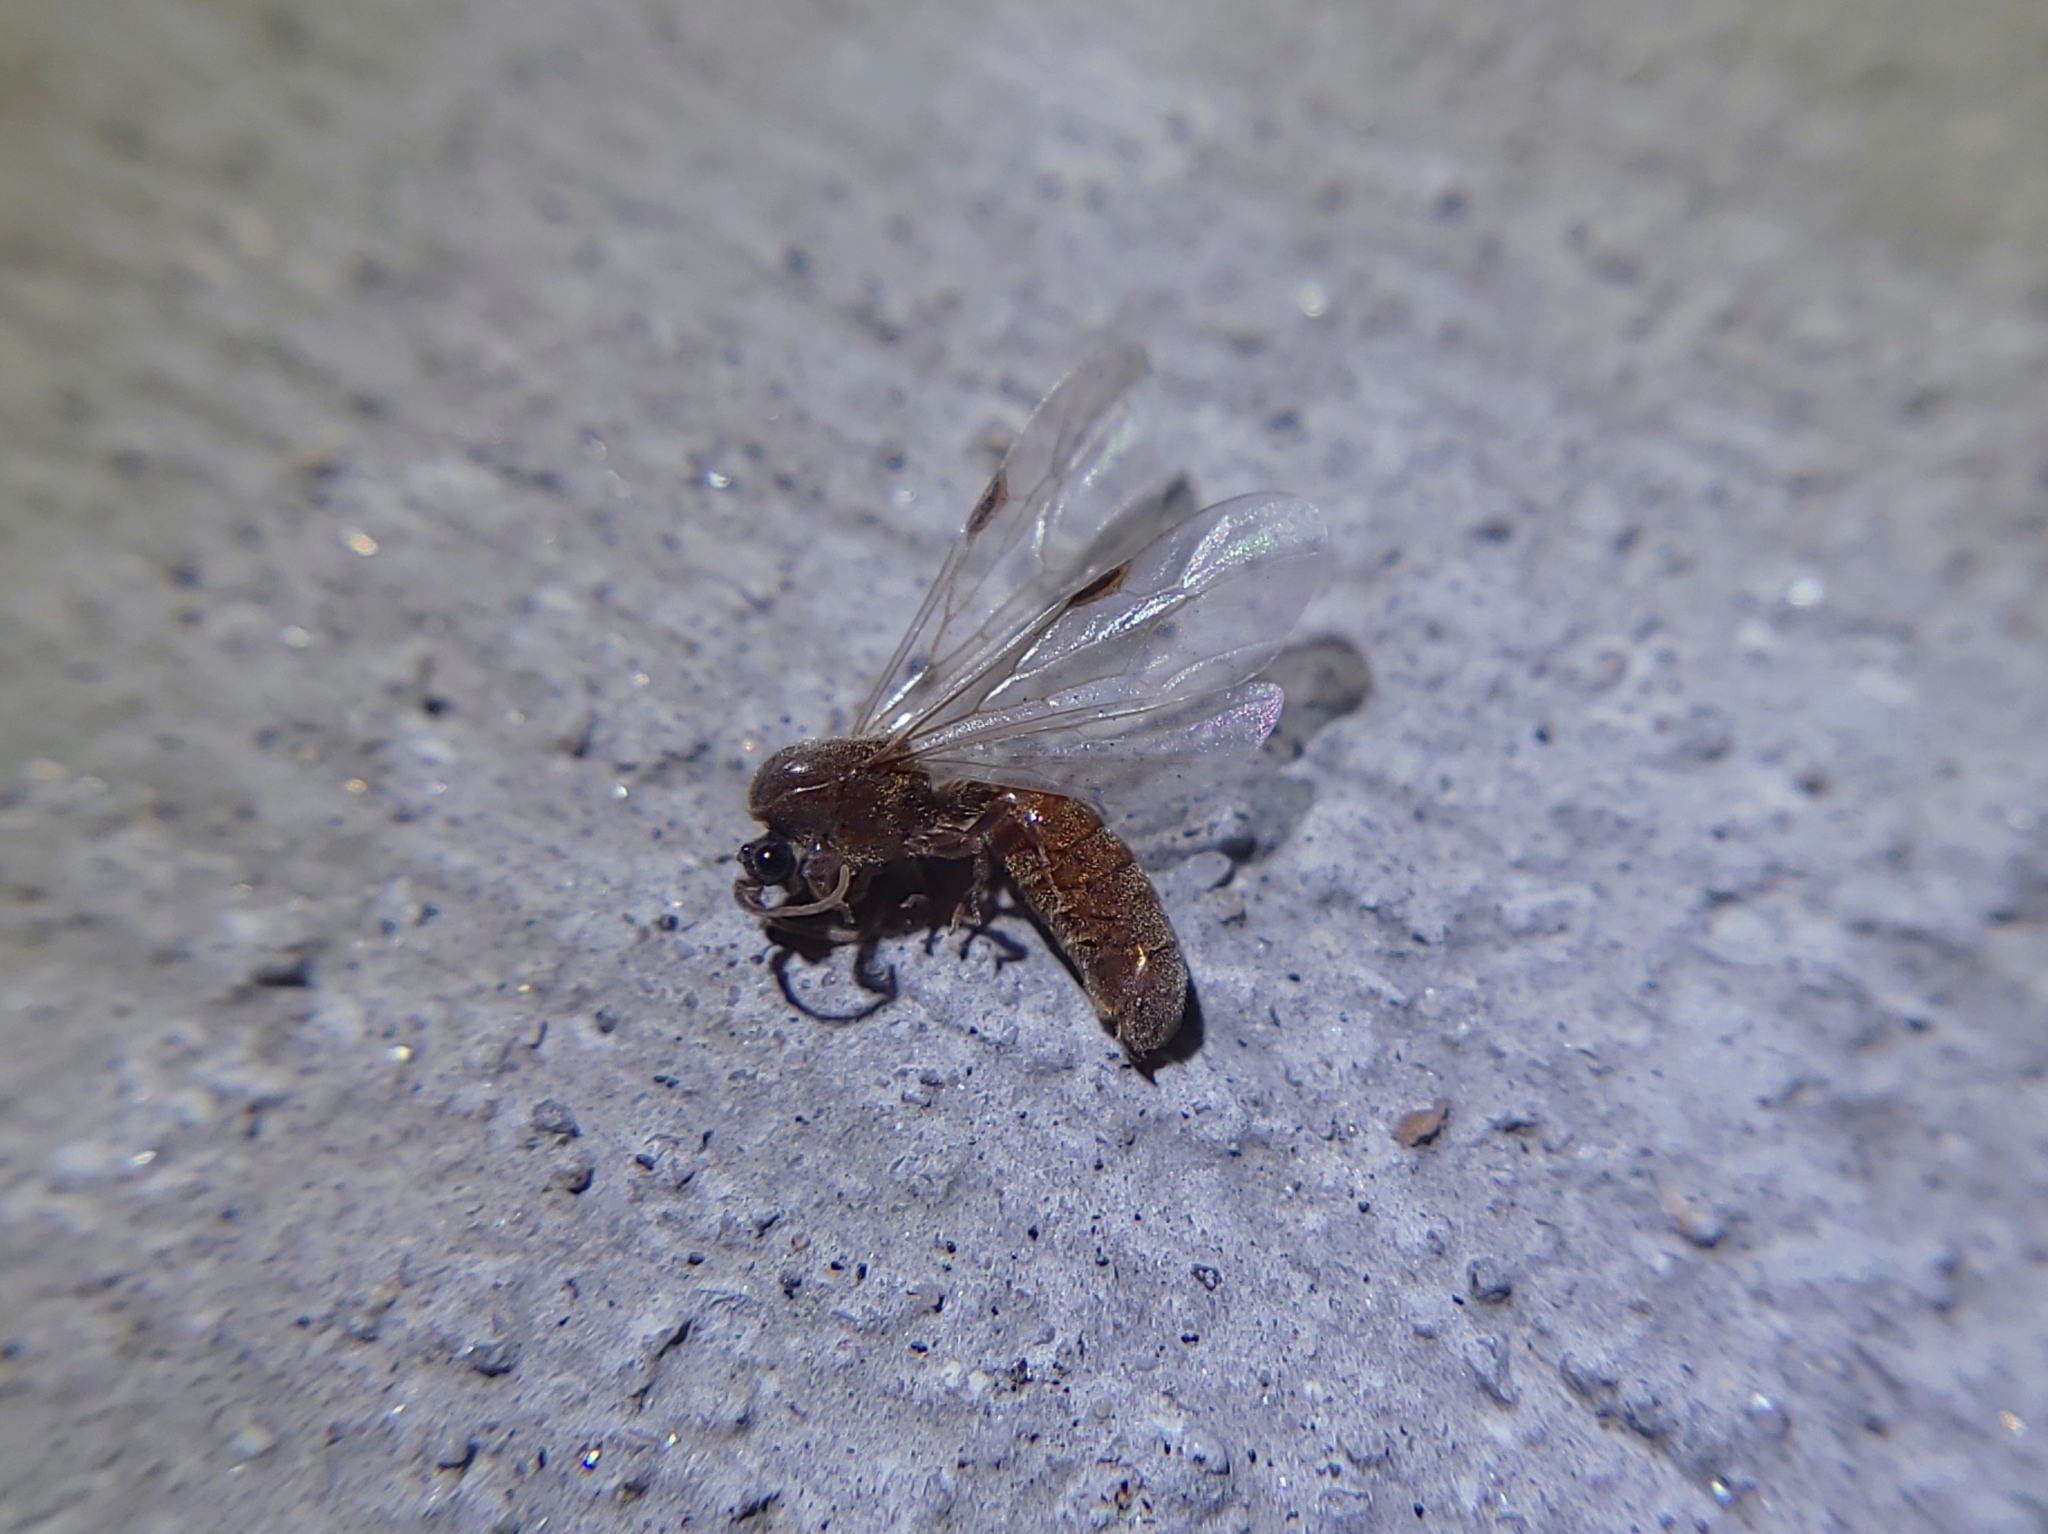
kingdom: Animalia
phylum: Arthropoda
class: Insecta
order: Hymenoptera
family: Formicidae
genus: Neivamyrmex
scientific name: Neivamyrmex
